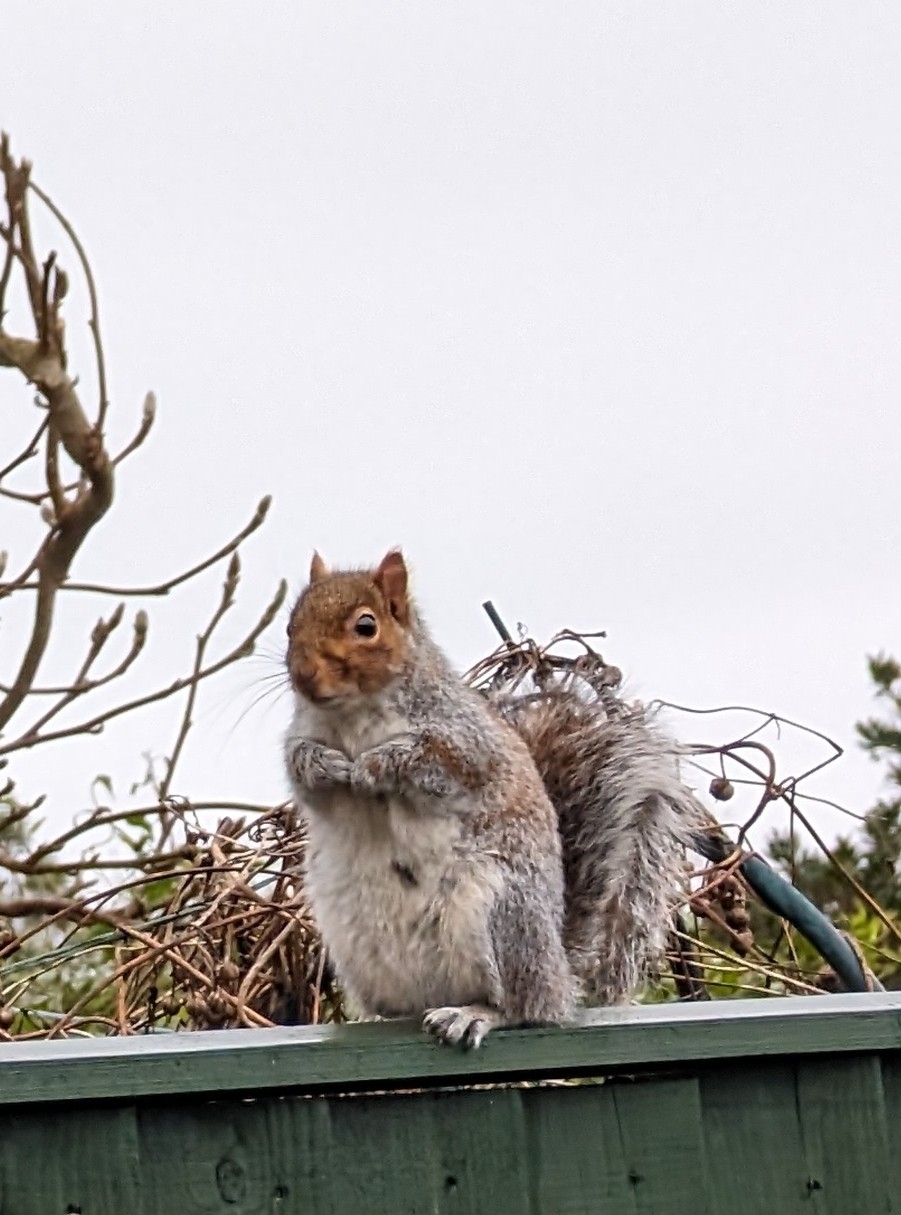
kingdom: Animalia
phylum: Chordata
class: Mammalia
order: Rodentia
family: Sciuridae
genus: Sciurus
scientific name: Sciurus carolinensis
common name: Eastern gray squirrel
